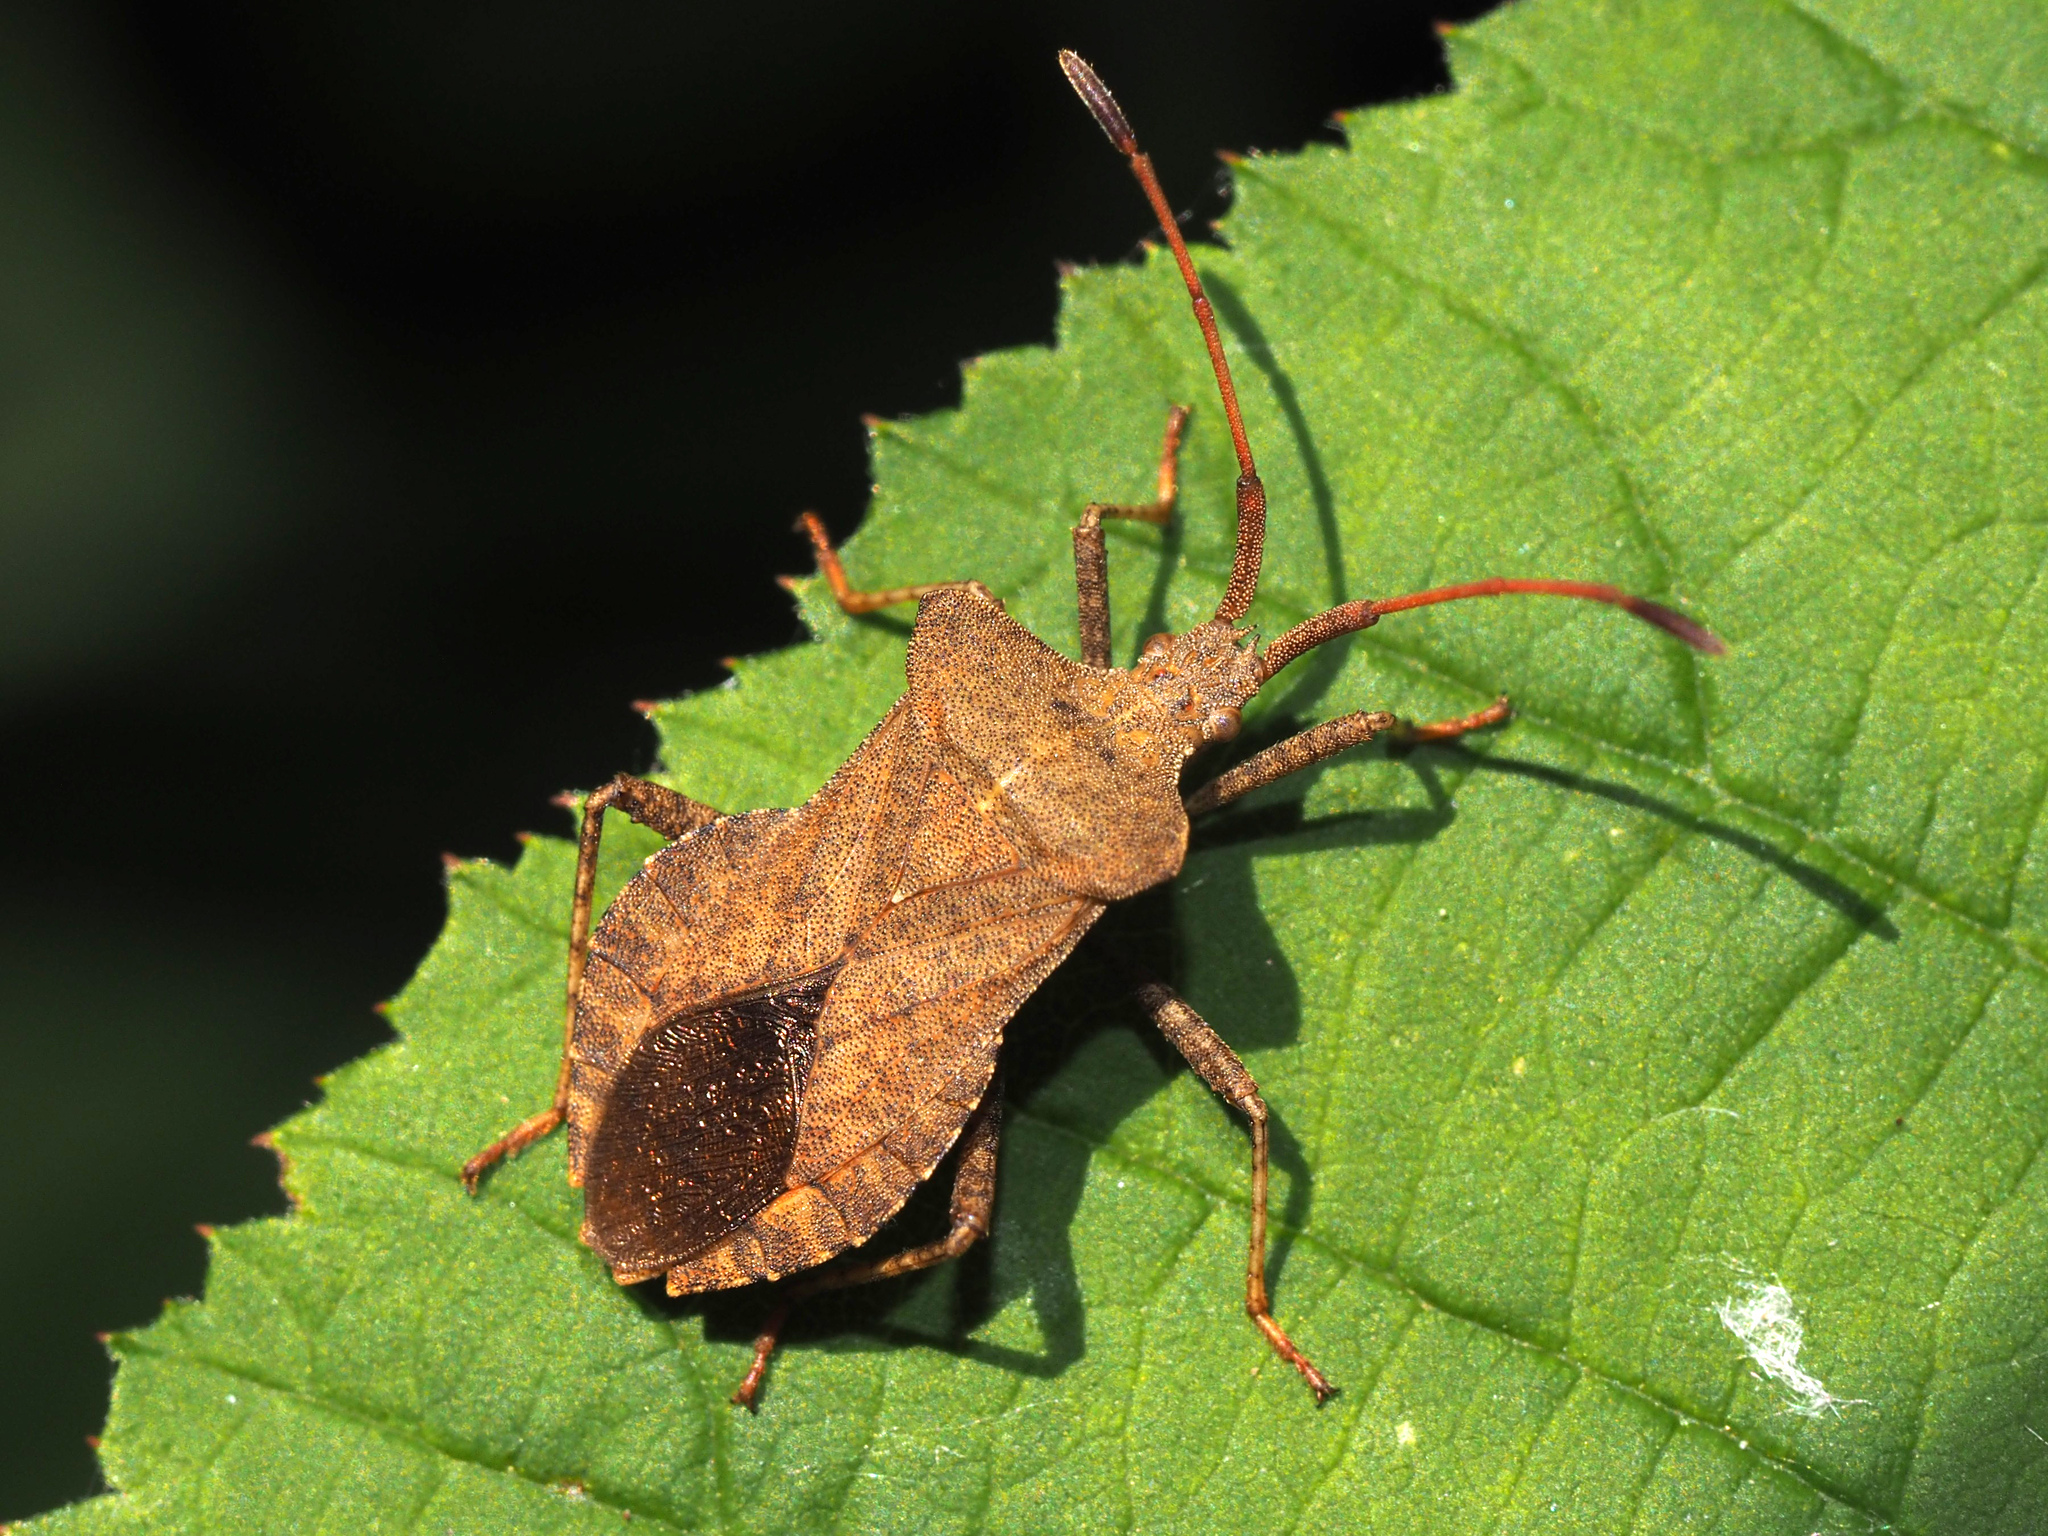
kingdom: Animalia
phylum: Arthropoda
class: Insecta
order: Hemiptera
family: Coreidae
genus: Coreus
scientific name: Coreus marginatus
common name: Dock bug
